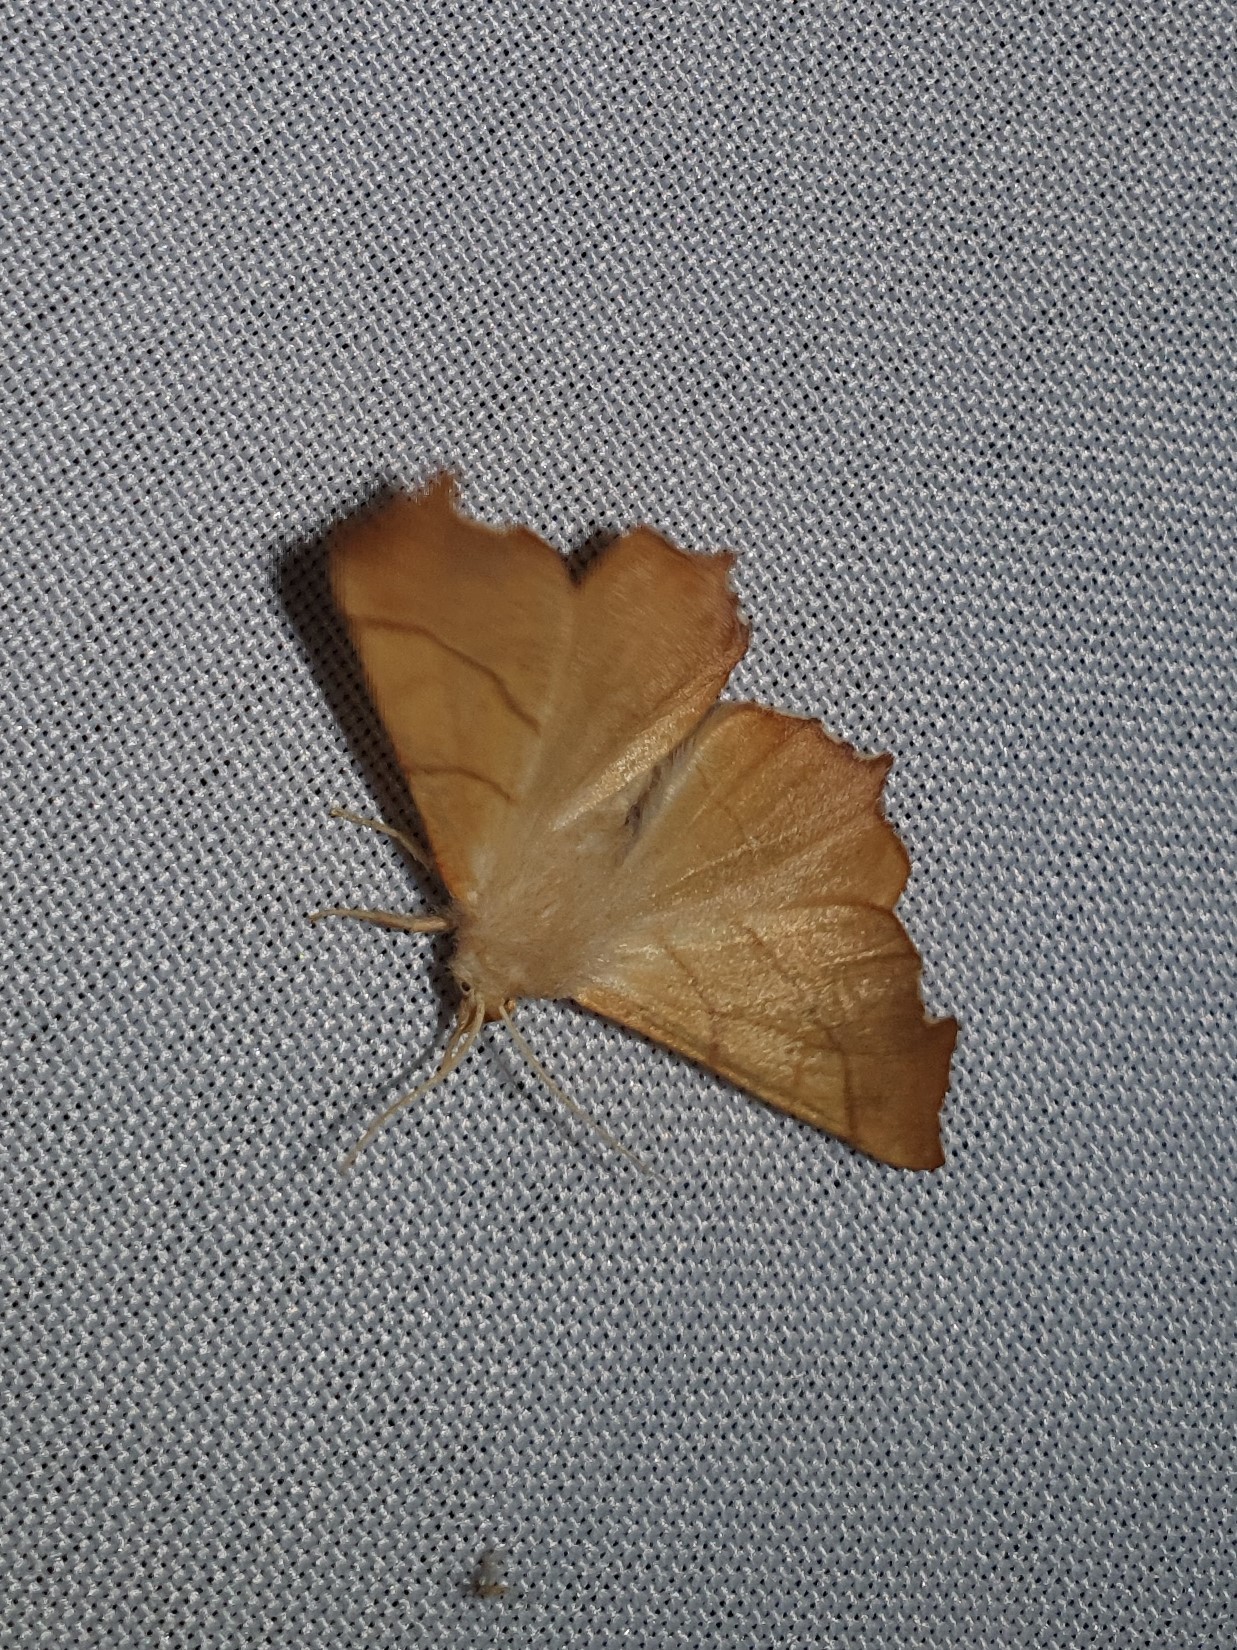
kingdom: Animalia
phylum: Arthropoda
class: Insecta
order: Lepidoptera
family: Geometridae
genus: Ennomos
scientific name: Ennomos fuscantaria
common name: Dusky thorn
